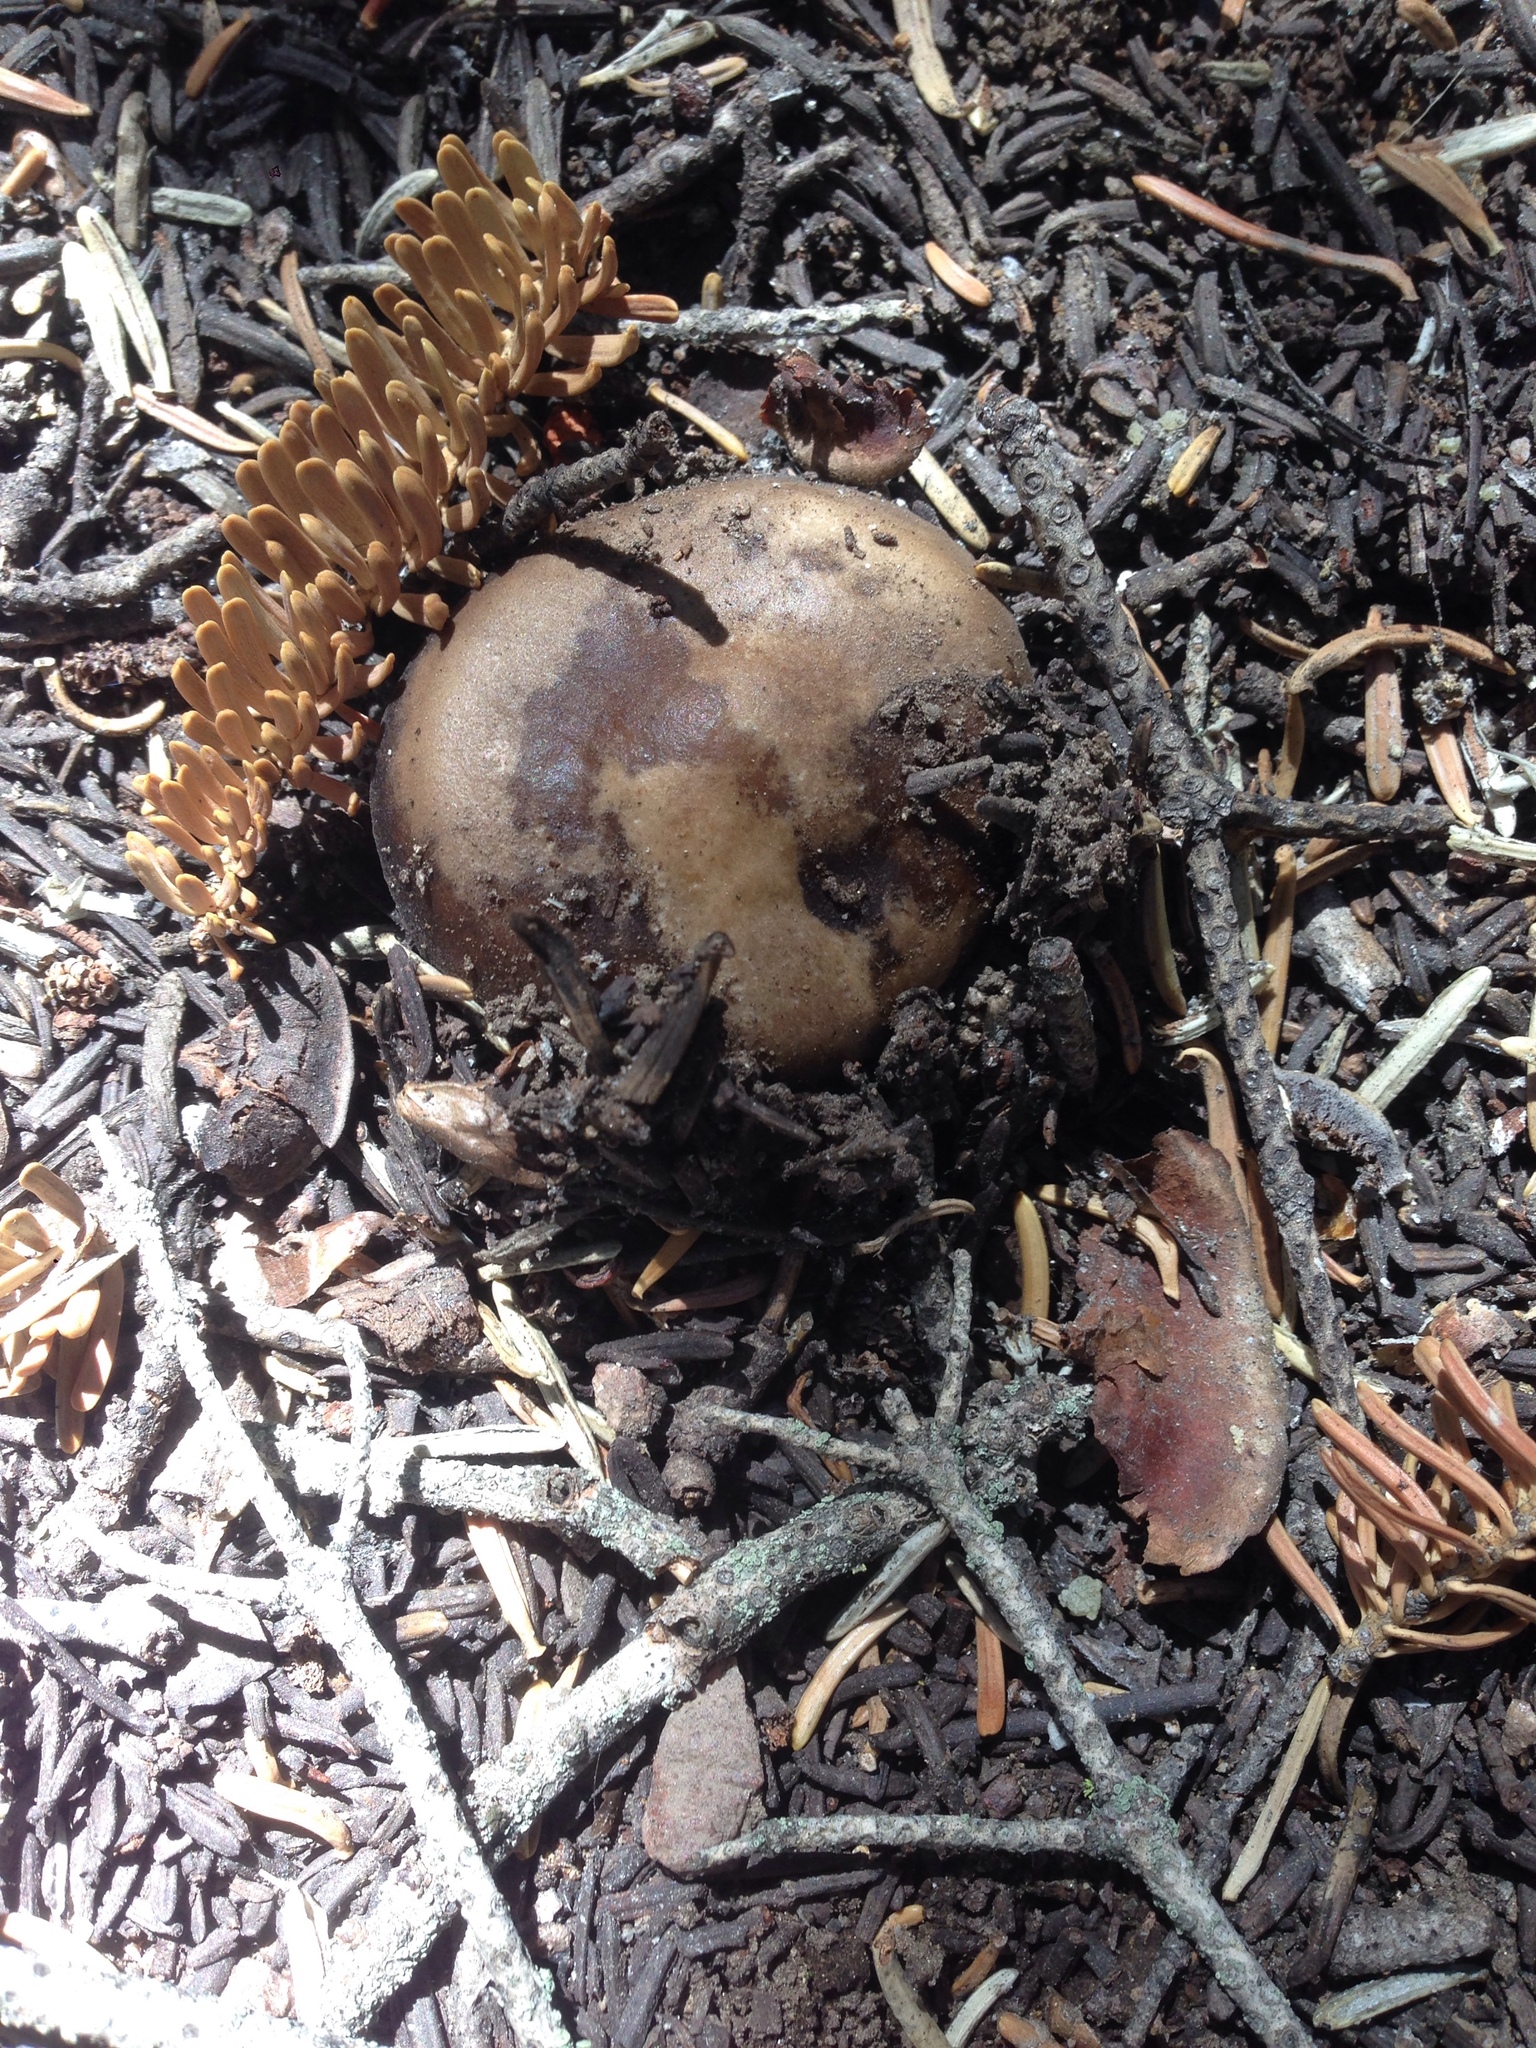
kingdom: Fungi
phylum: Basidiomycota
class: Agaricomycetes
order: Agaricales
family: Tricholomataceae
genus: Melanoleuca
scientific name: Melanoleuca angelesiana
